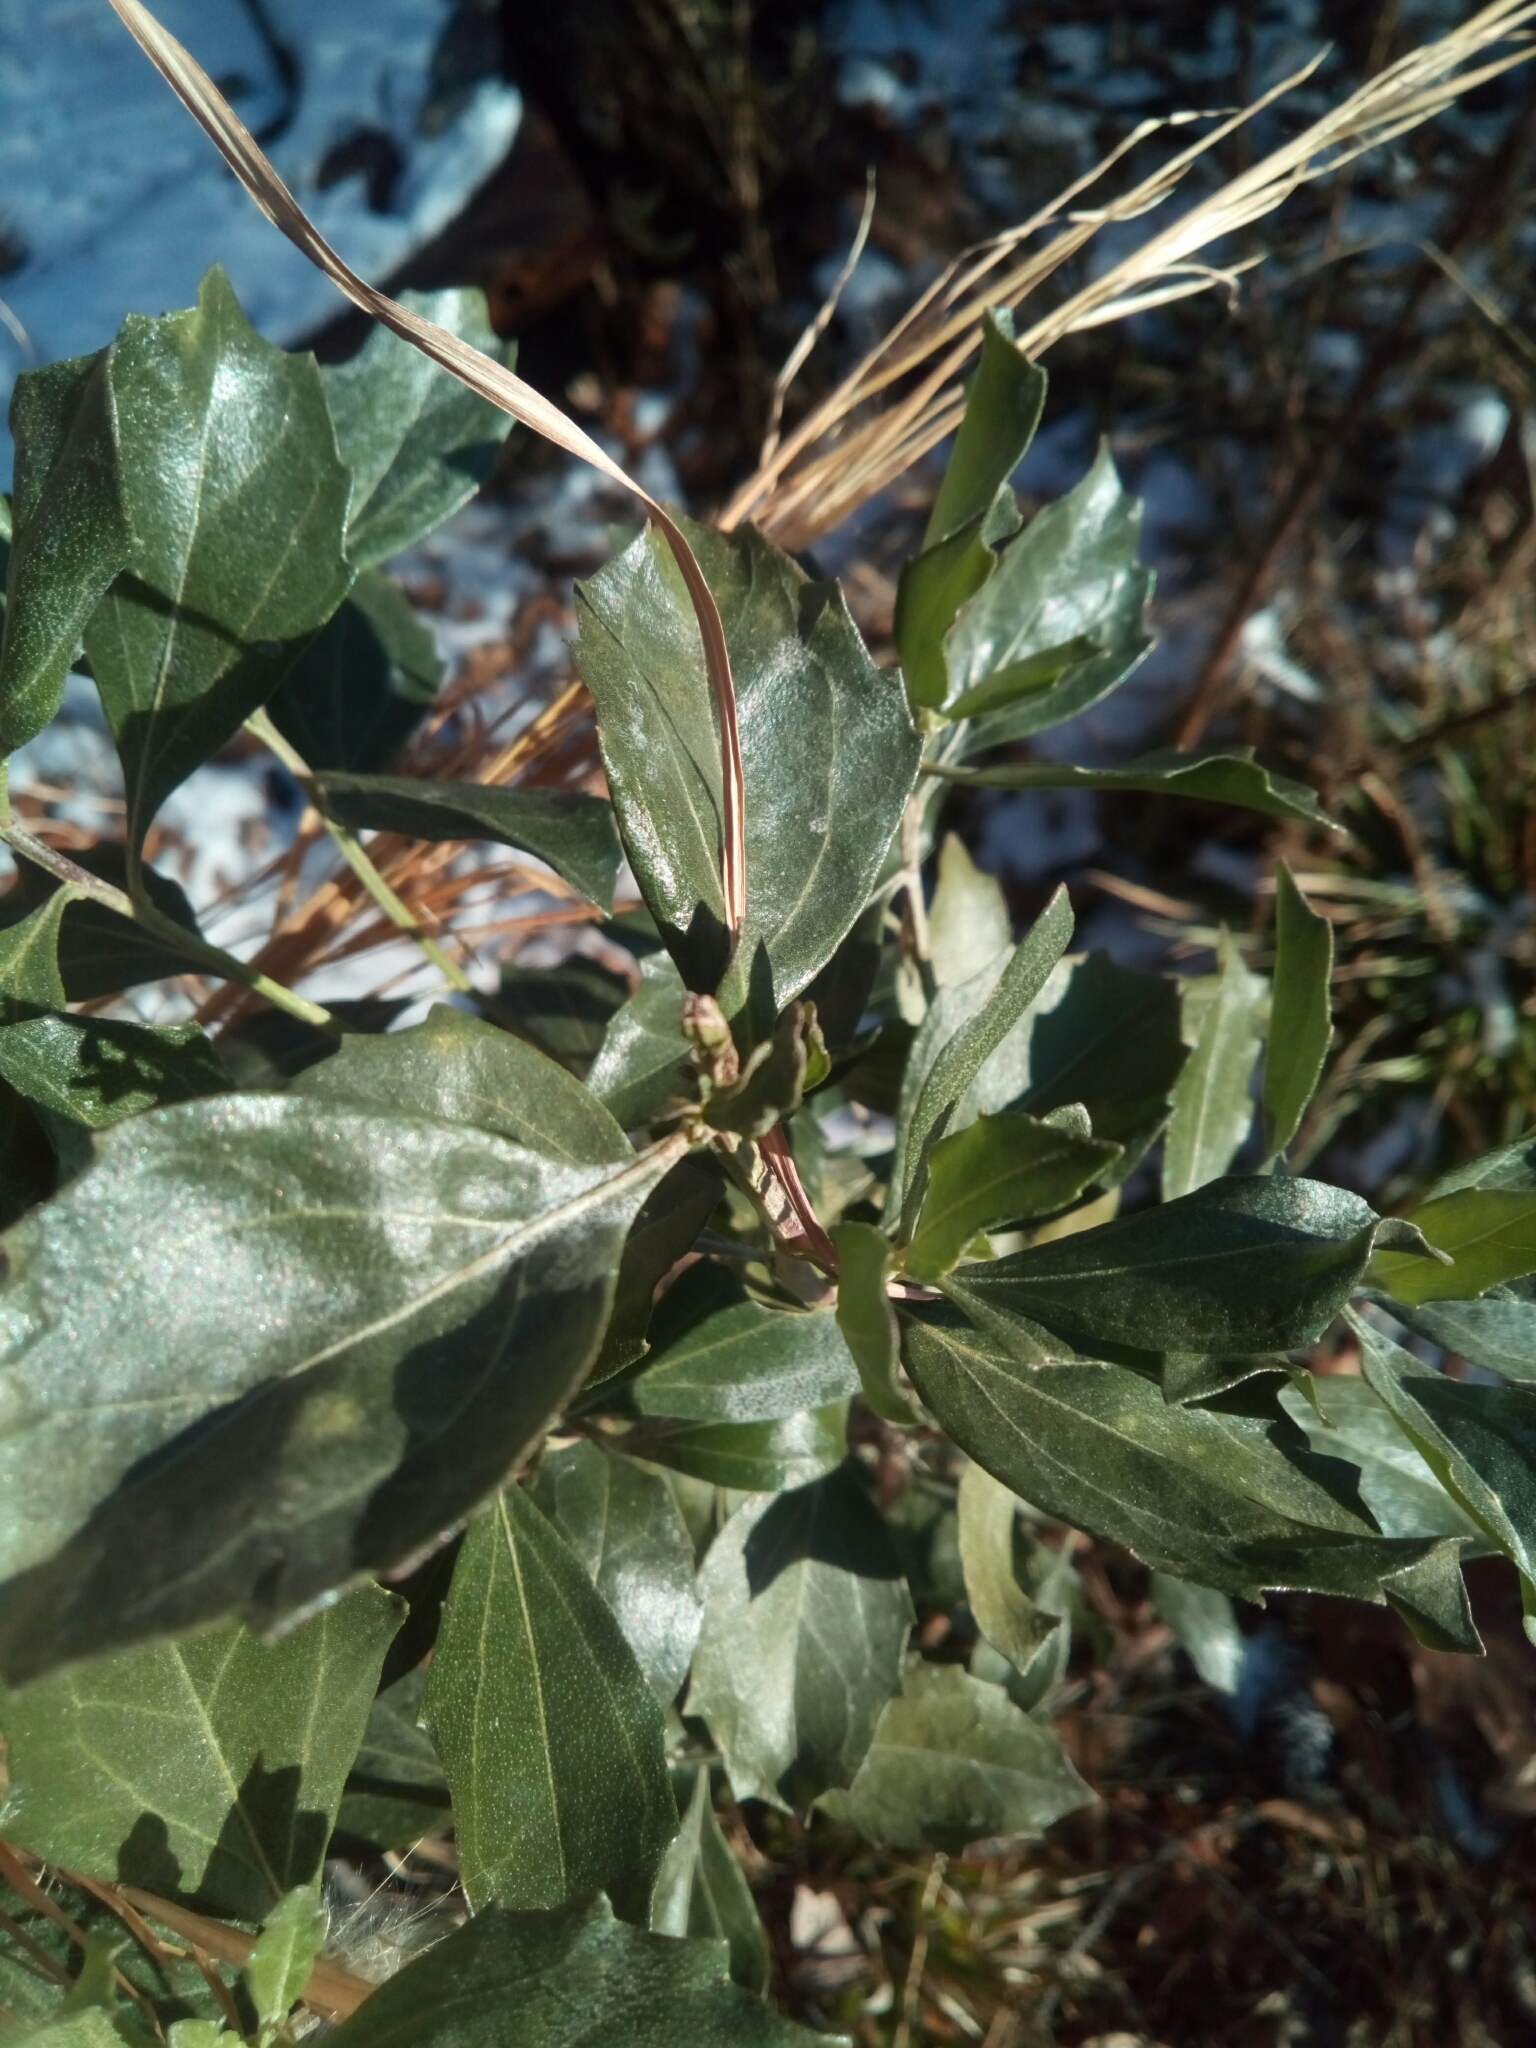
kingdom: Plantae
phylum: Tracheophyta
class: Magnoliopsida
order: Asterales
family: Asteraceae
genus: Baccharis
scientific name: Baccharis halimifolia
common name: Eastern baccharis
